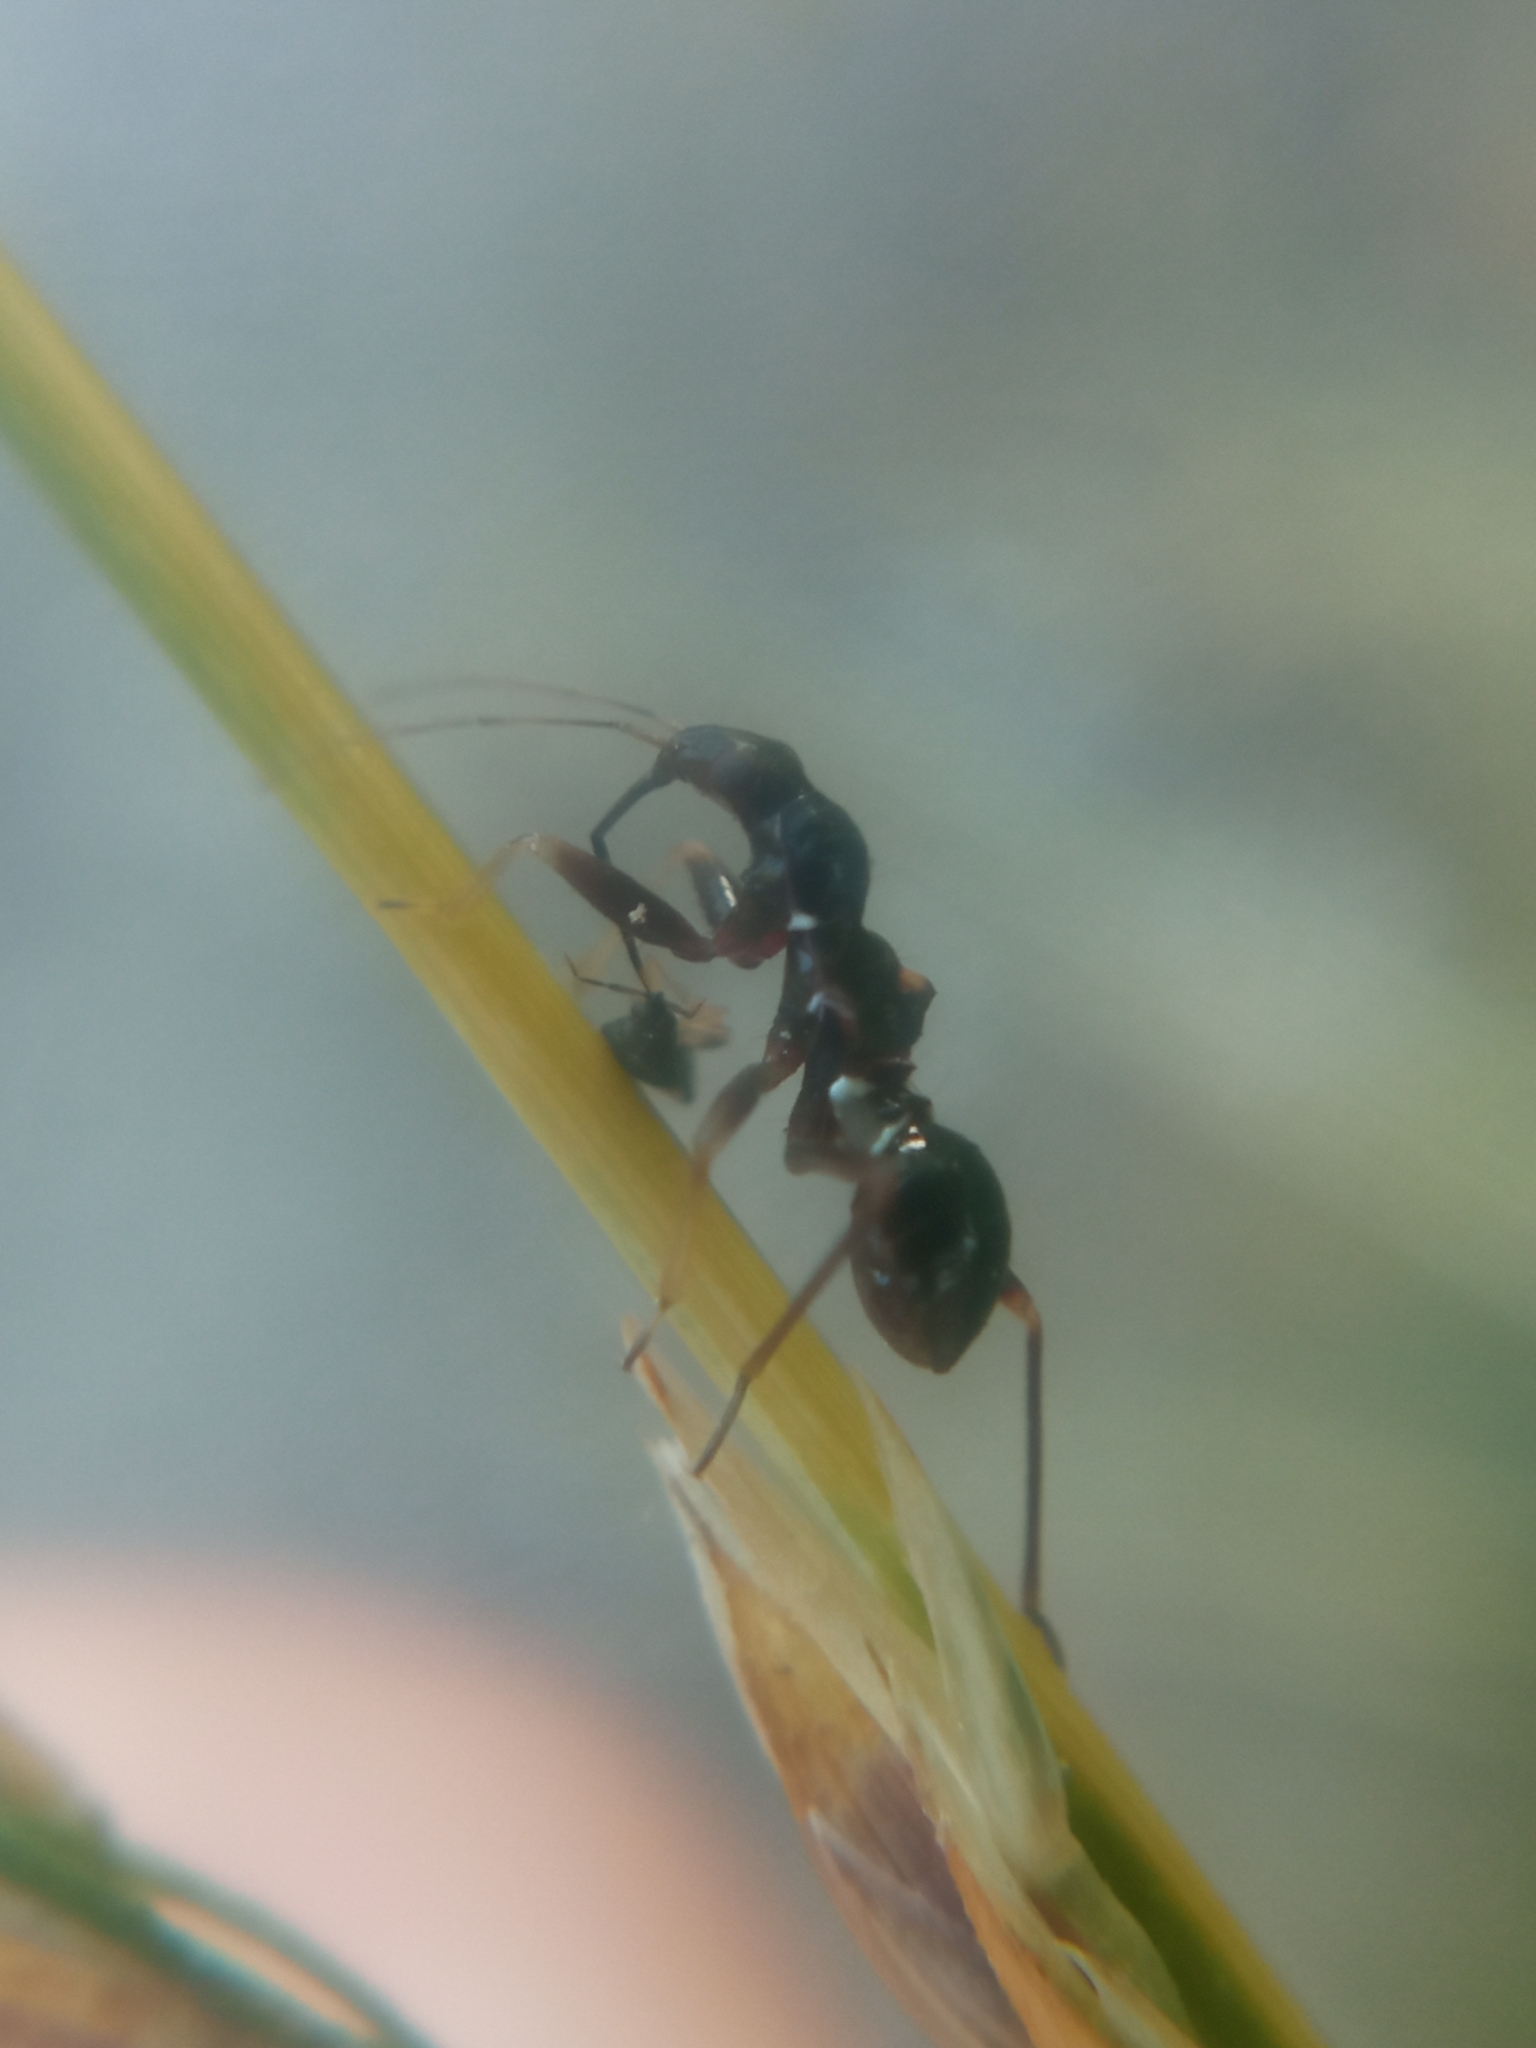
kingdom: Animalia
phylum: Arthropoda
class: Insecta
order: Hemiptera
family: Nabidae
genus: Himacerus
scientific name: Himacerus mirmicoides
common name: Ant damsel bug
